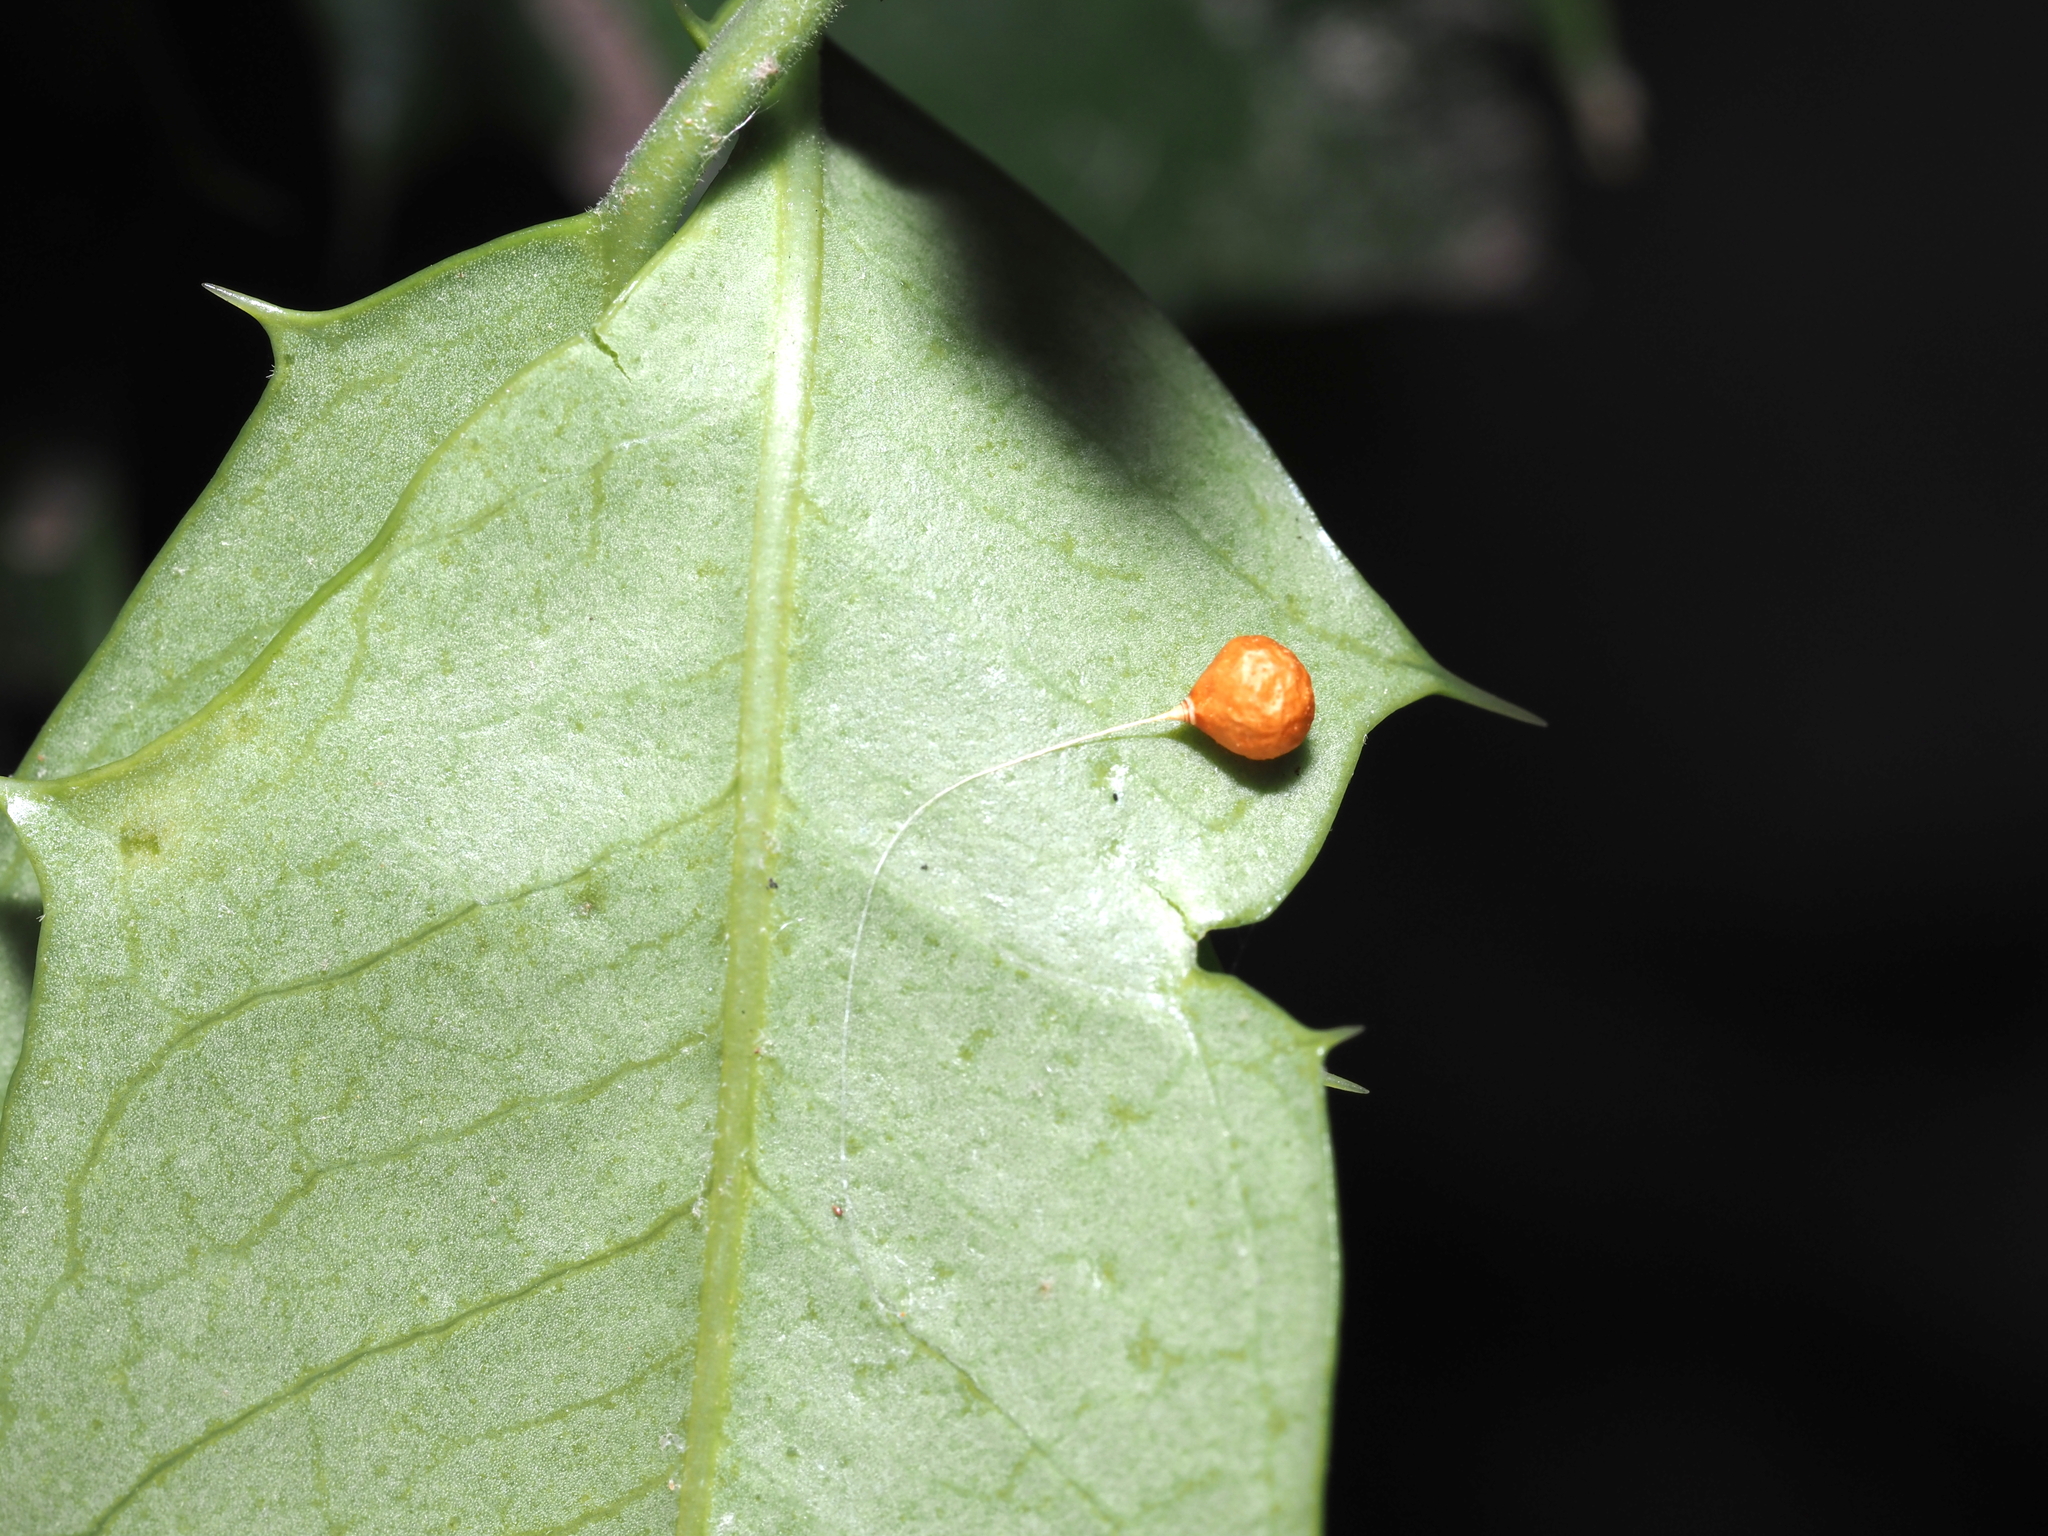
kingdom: Animalia
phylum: Arthropoda
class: Arachnida
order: Araneae
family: Theridiosomatidae
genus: Theridiosoma
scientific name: Theridiosoma gemmosum
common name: Ray spider
